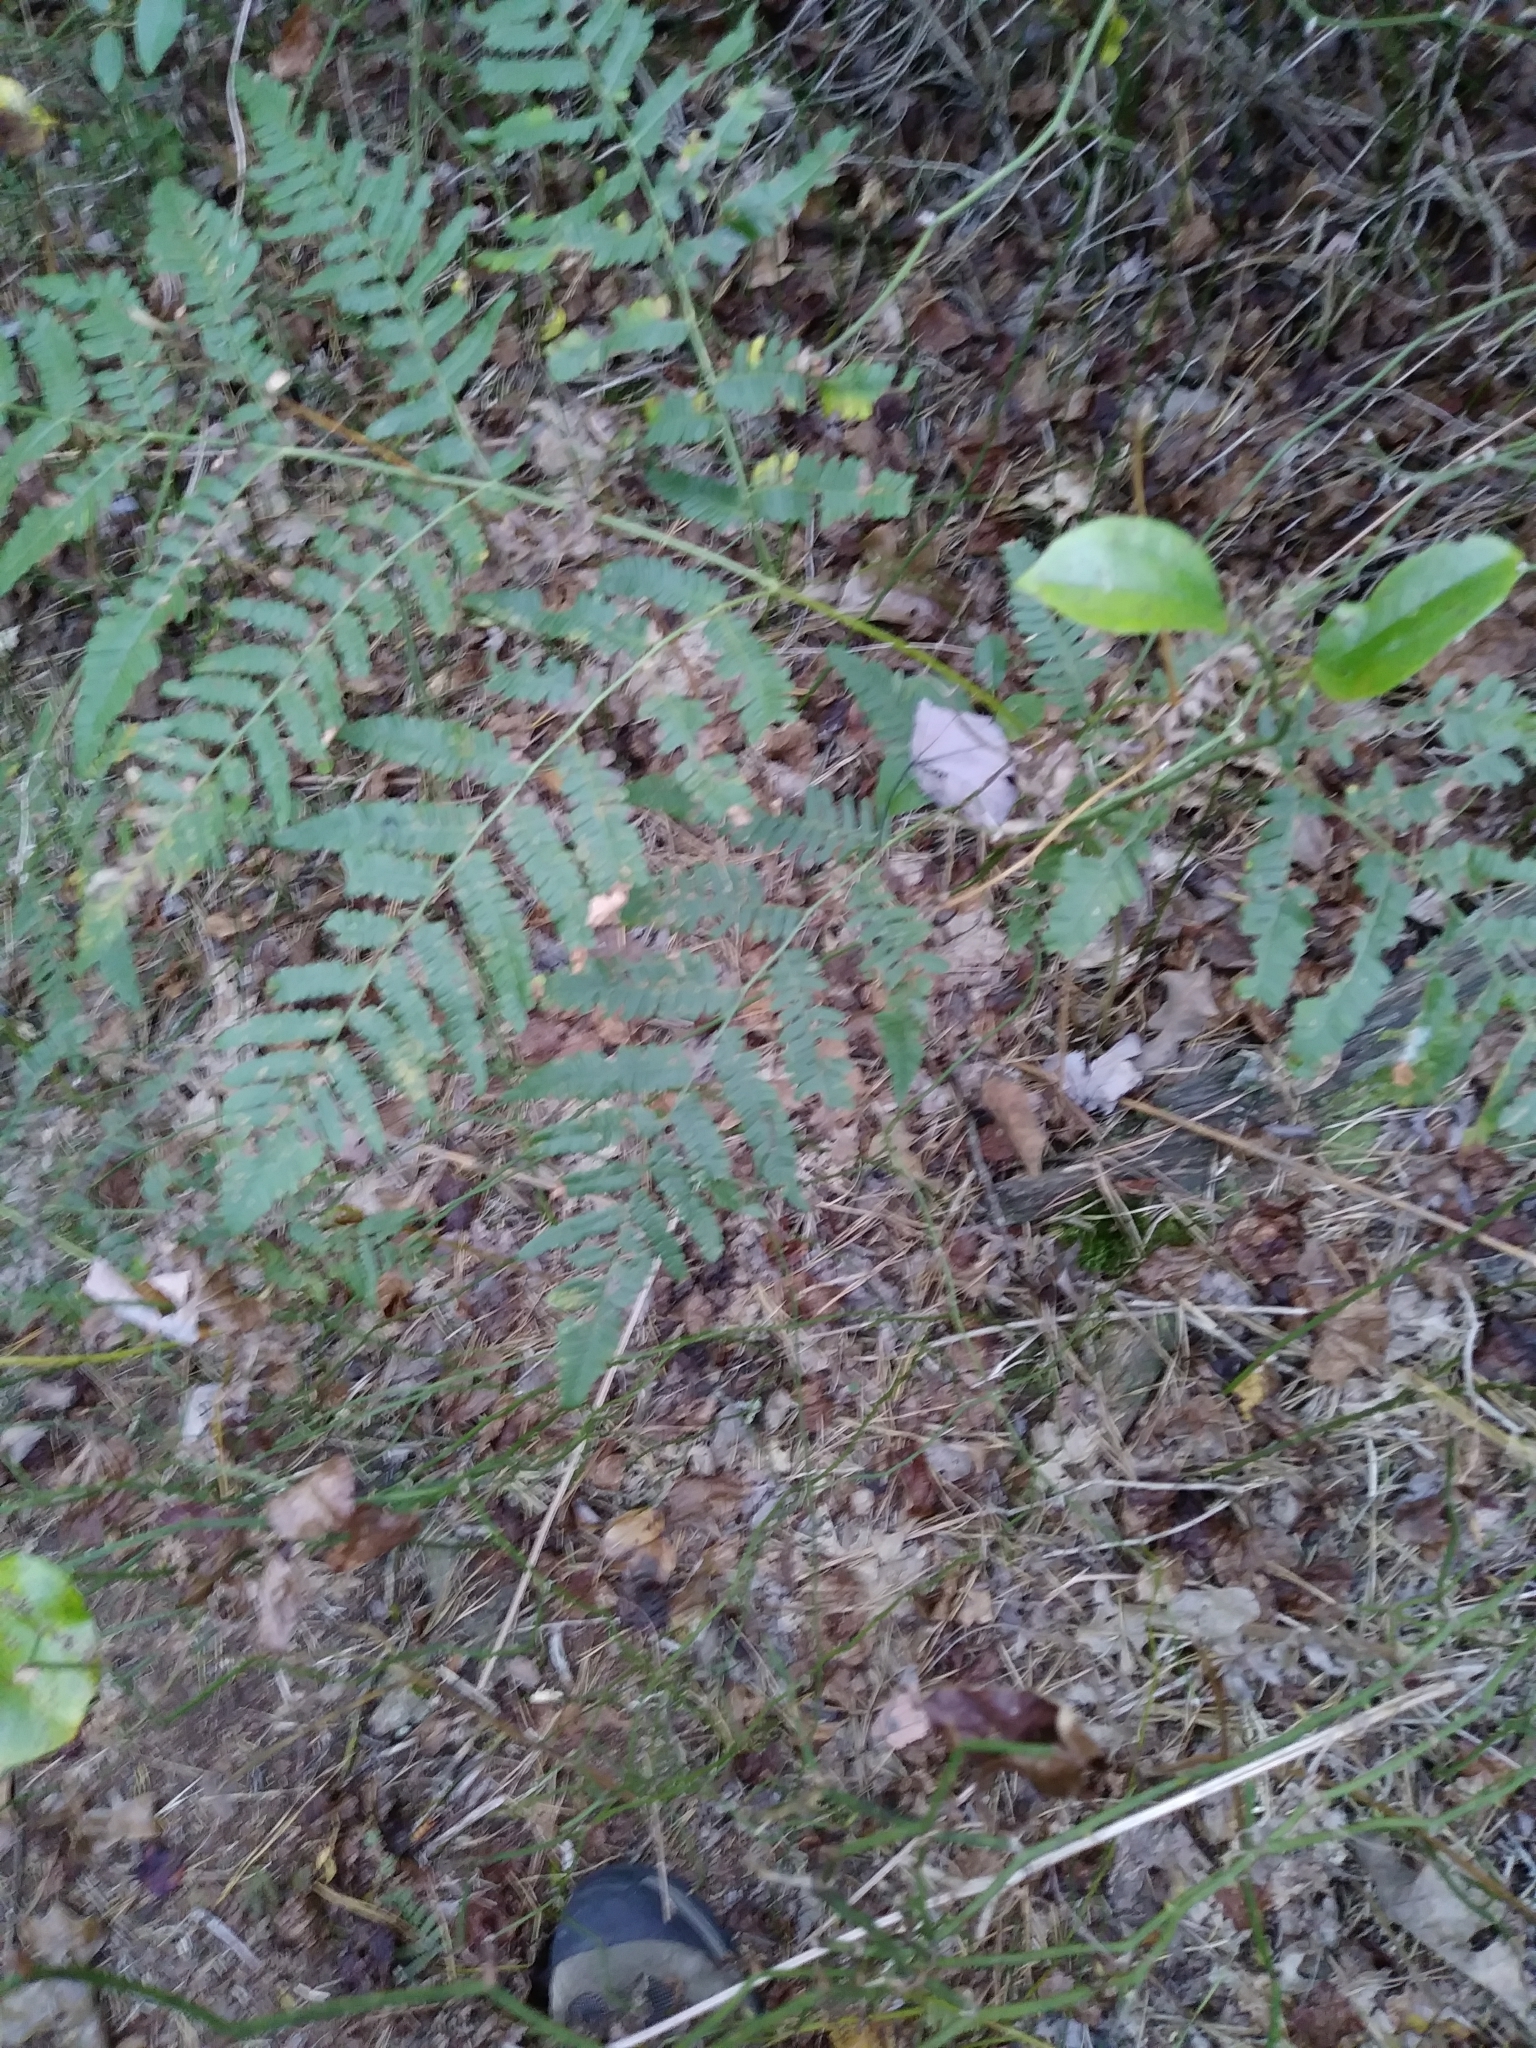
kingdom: Plantae
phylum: Tracheophyta
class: Polypodiopsida
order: Polypodiales
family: Dennstaedtiaceae
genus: Pteridium
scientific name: Pteridium aquilinum
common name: Bracken
